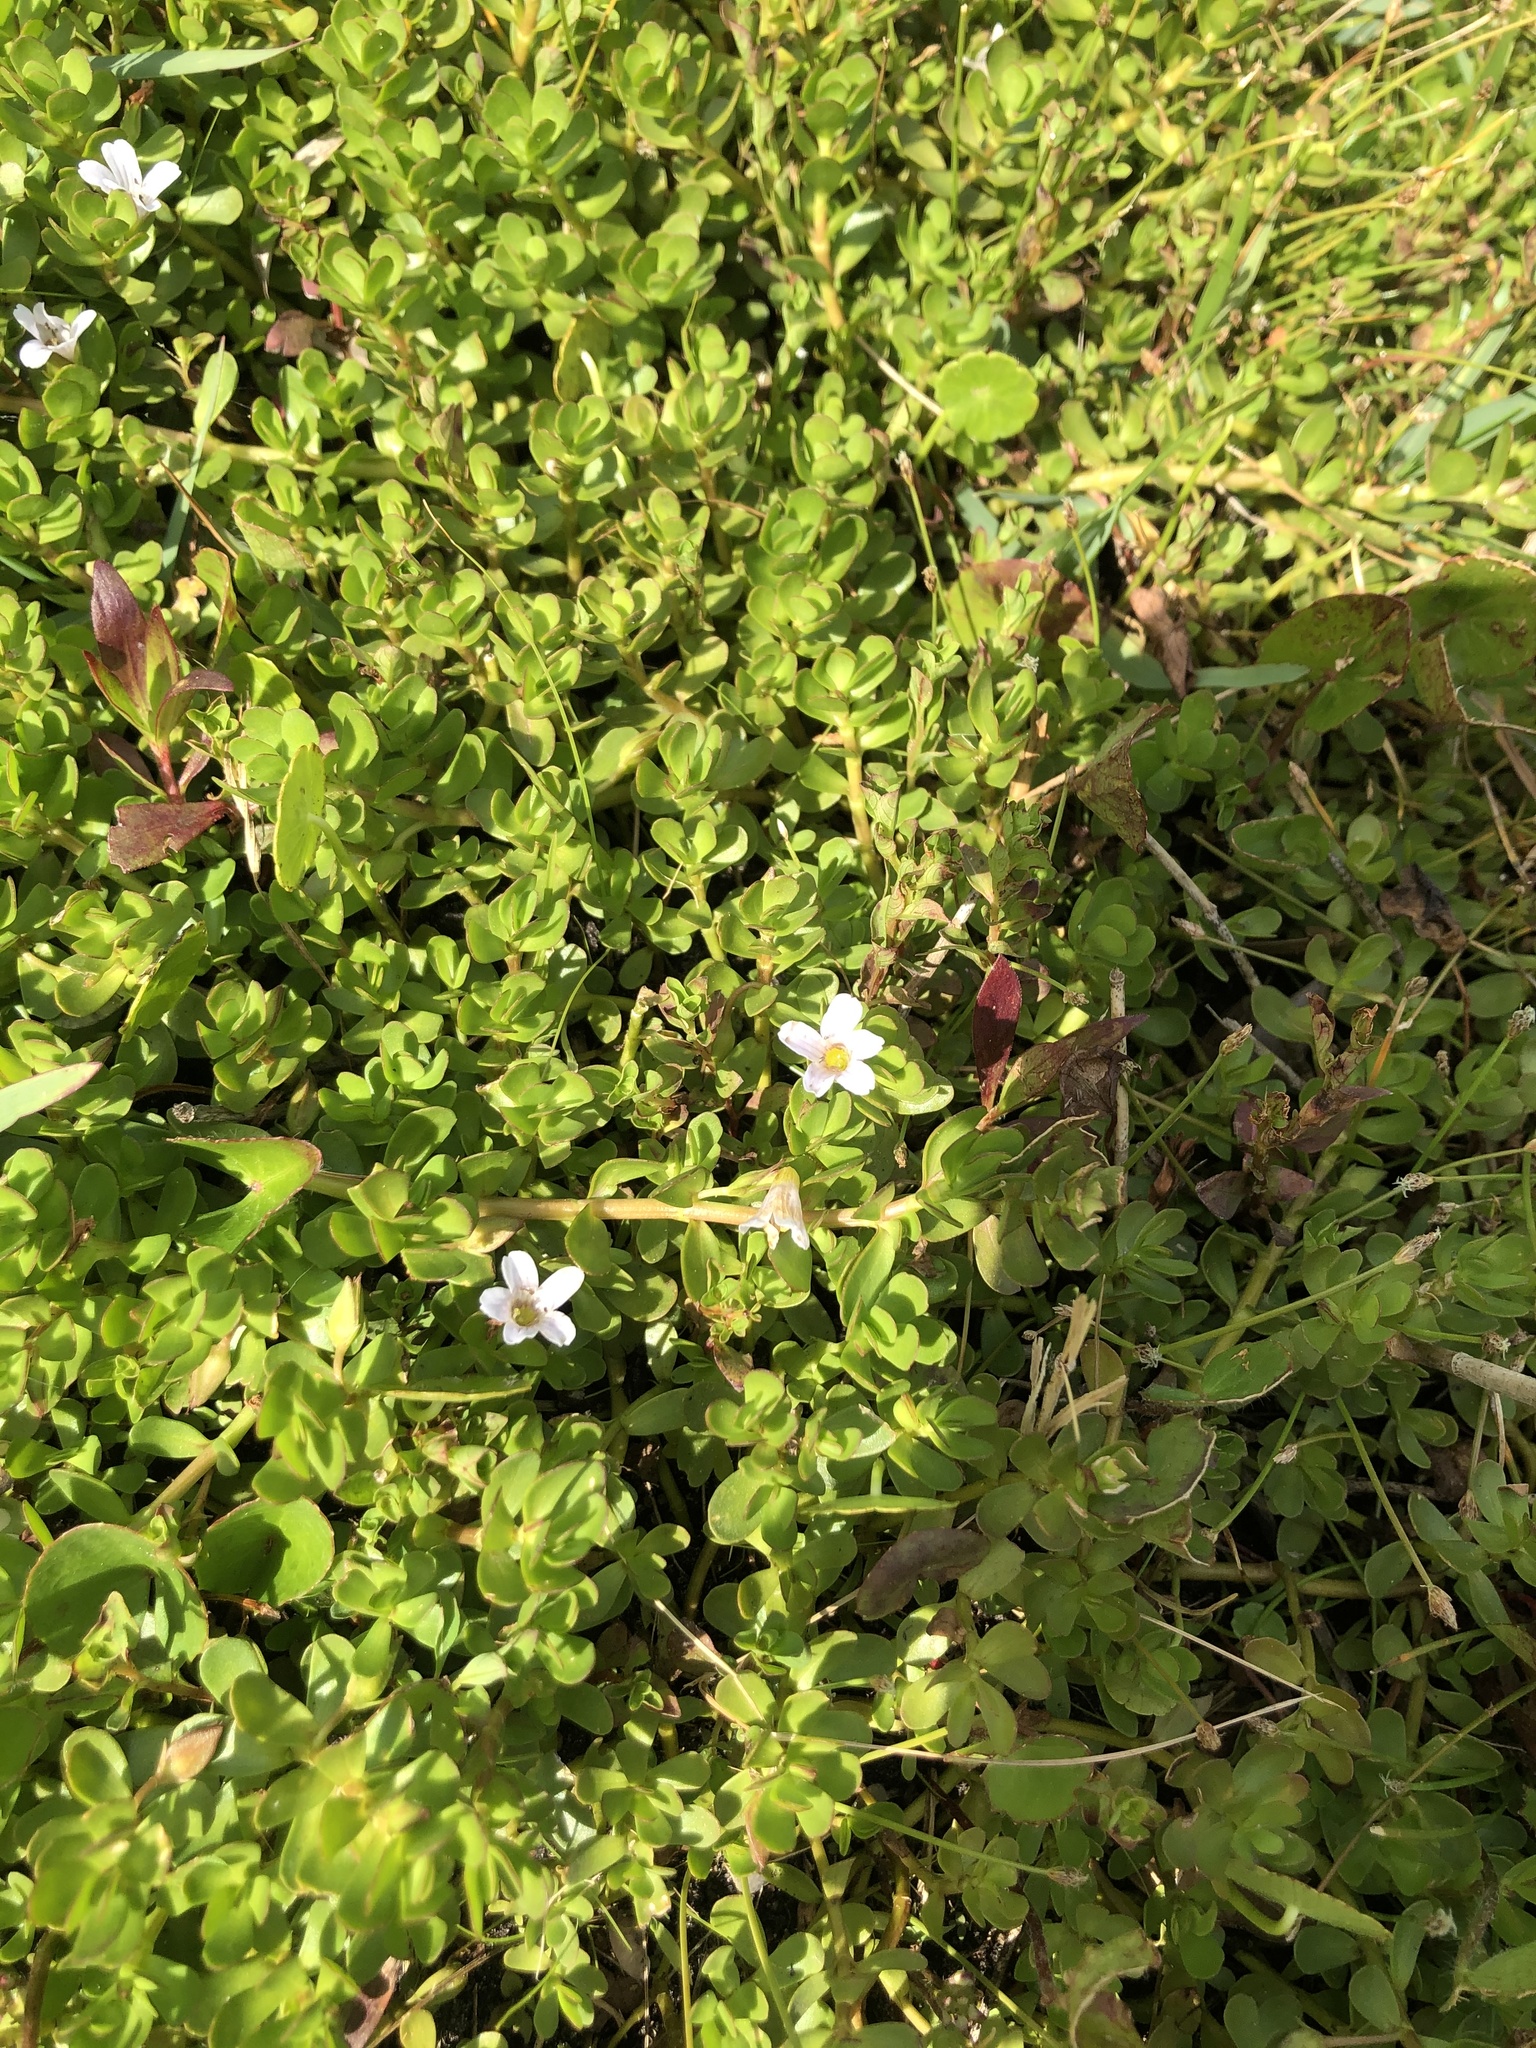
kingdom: Plantae
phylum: Tracheophyta
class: Magnoliopsida
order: Lamiales
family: Plantaginaceae
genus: Bacopa
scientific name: Bacopa monnieri
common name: Indian-pennywort
